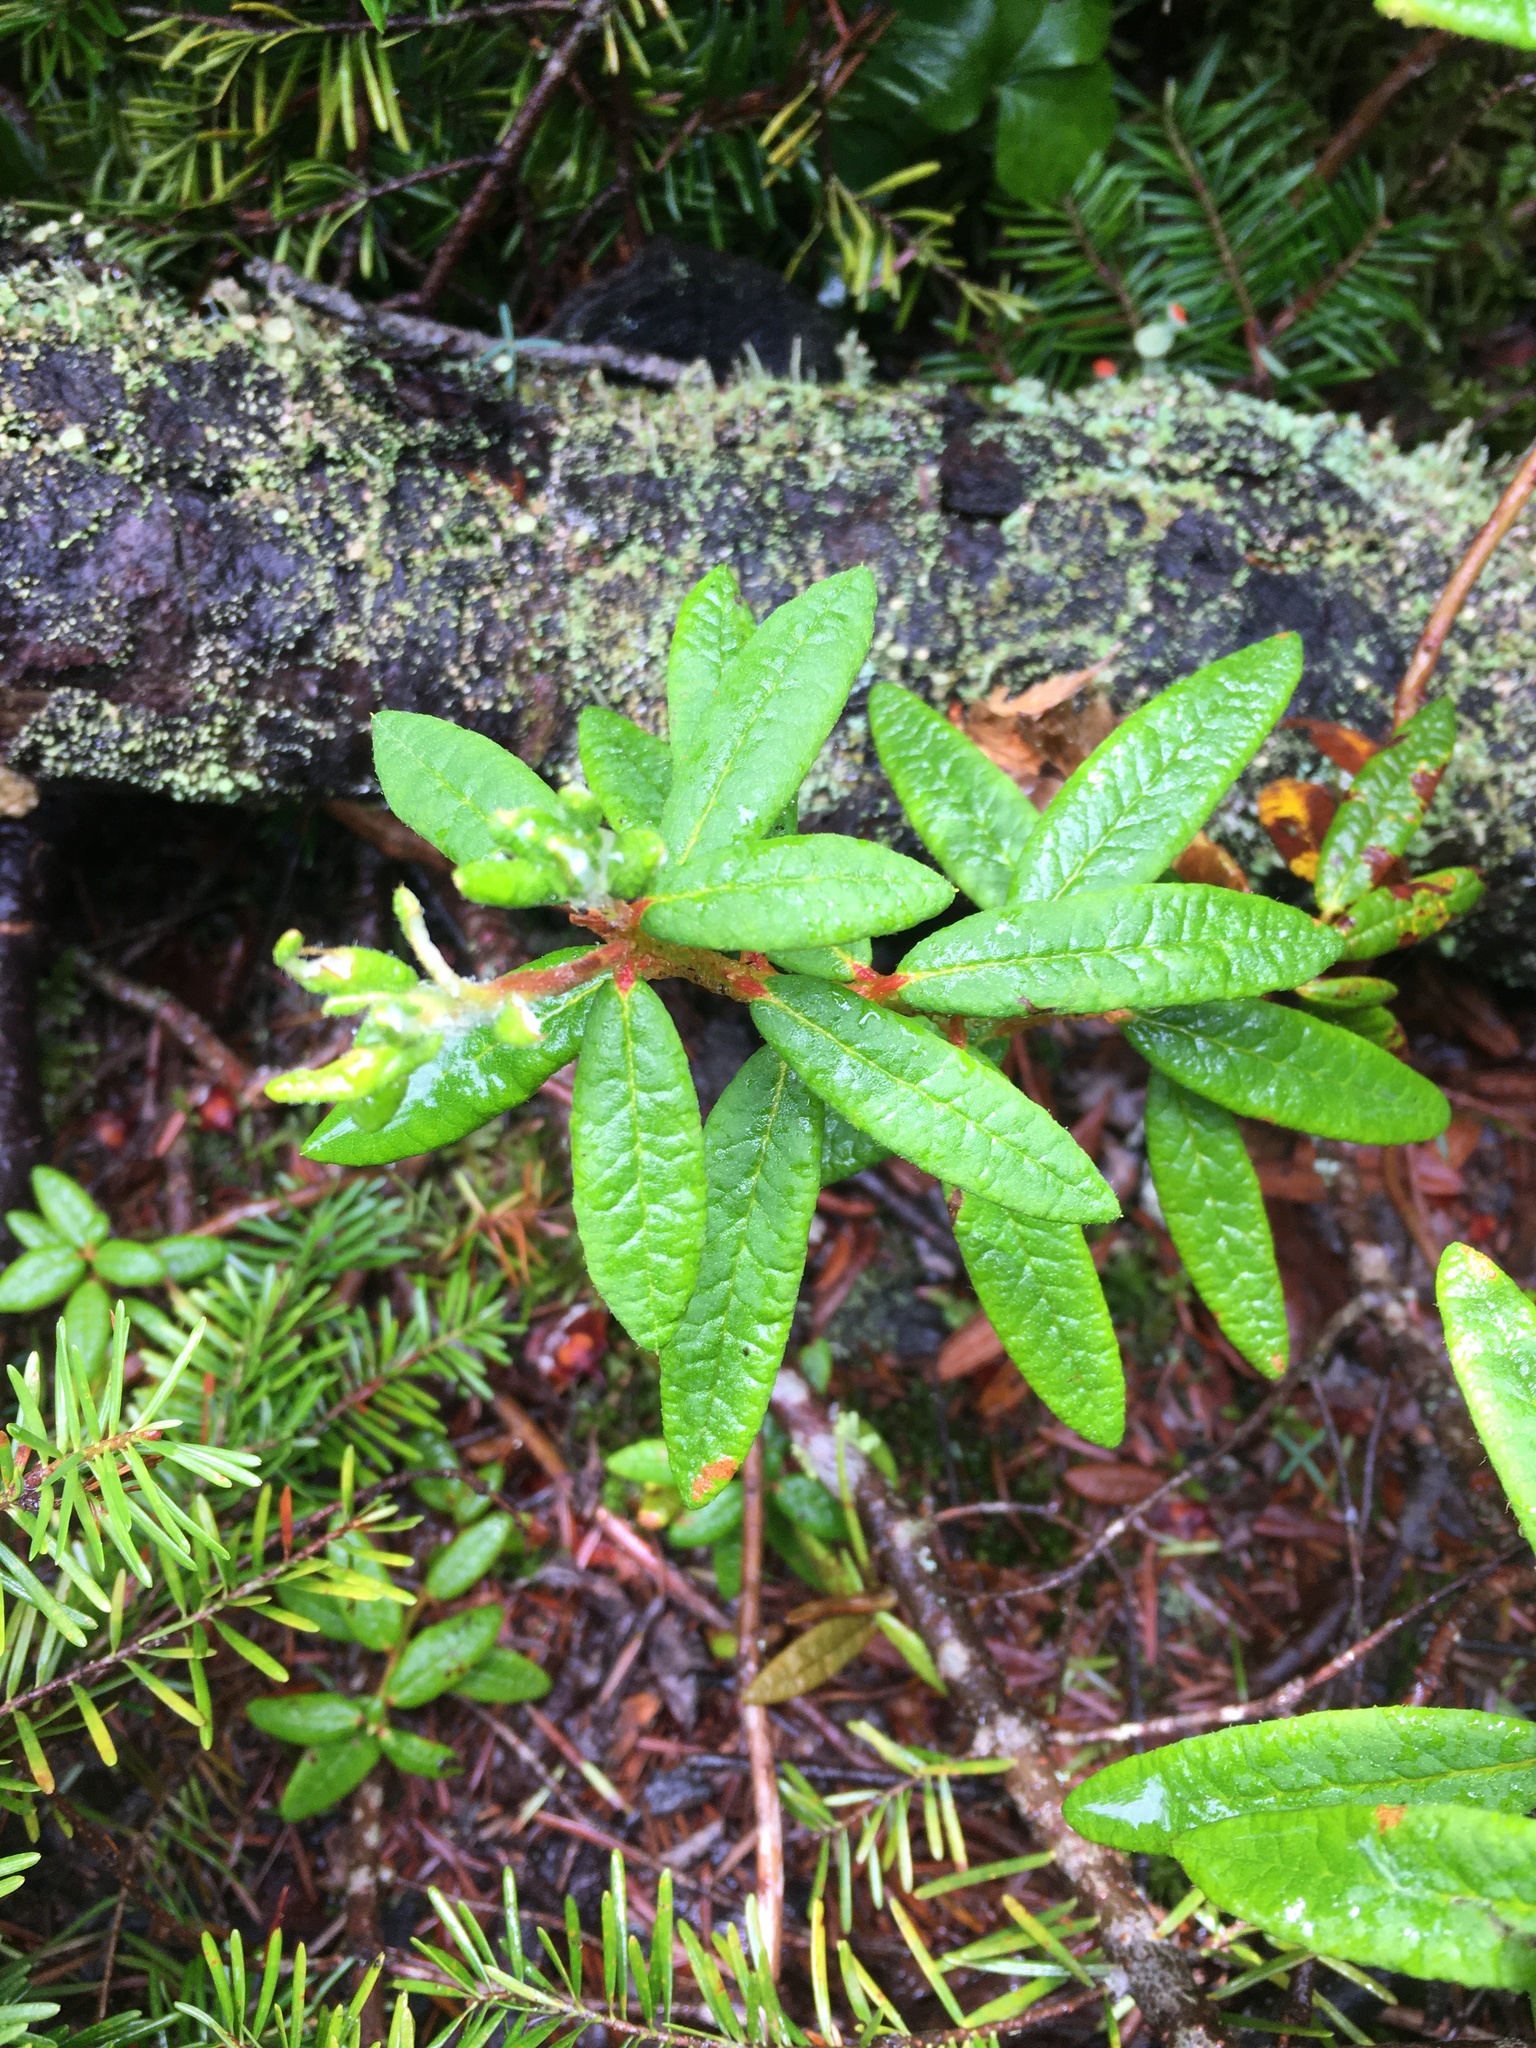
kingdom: Plantae
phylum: Tracheophyta
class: Magnoliopsida
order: Ericales
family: Ericaceae
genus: Rhododendron
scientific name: Rhododendron groenlandicum
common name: Bog labrador tea
